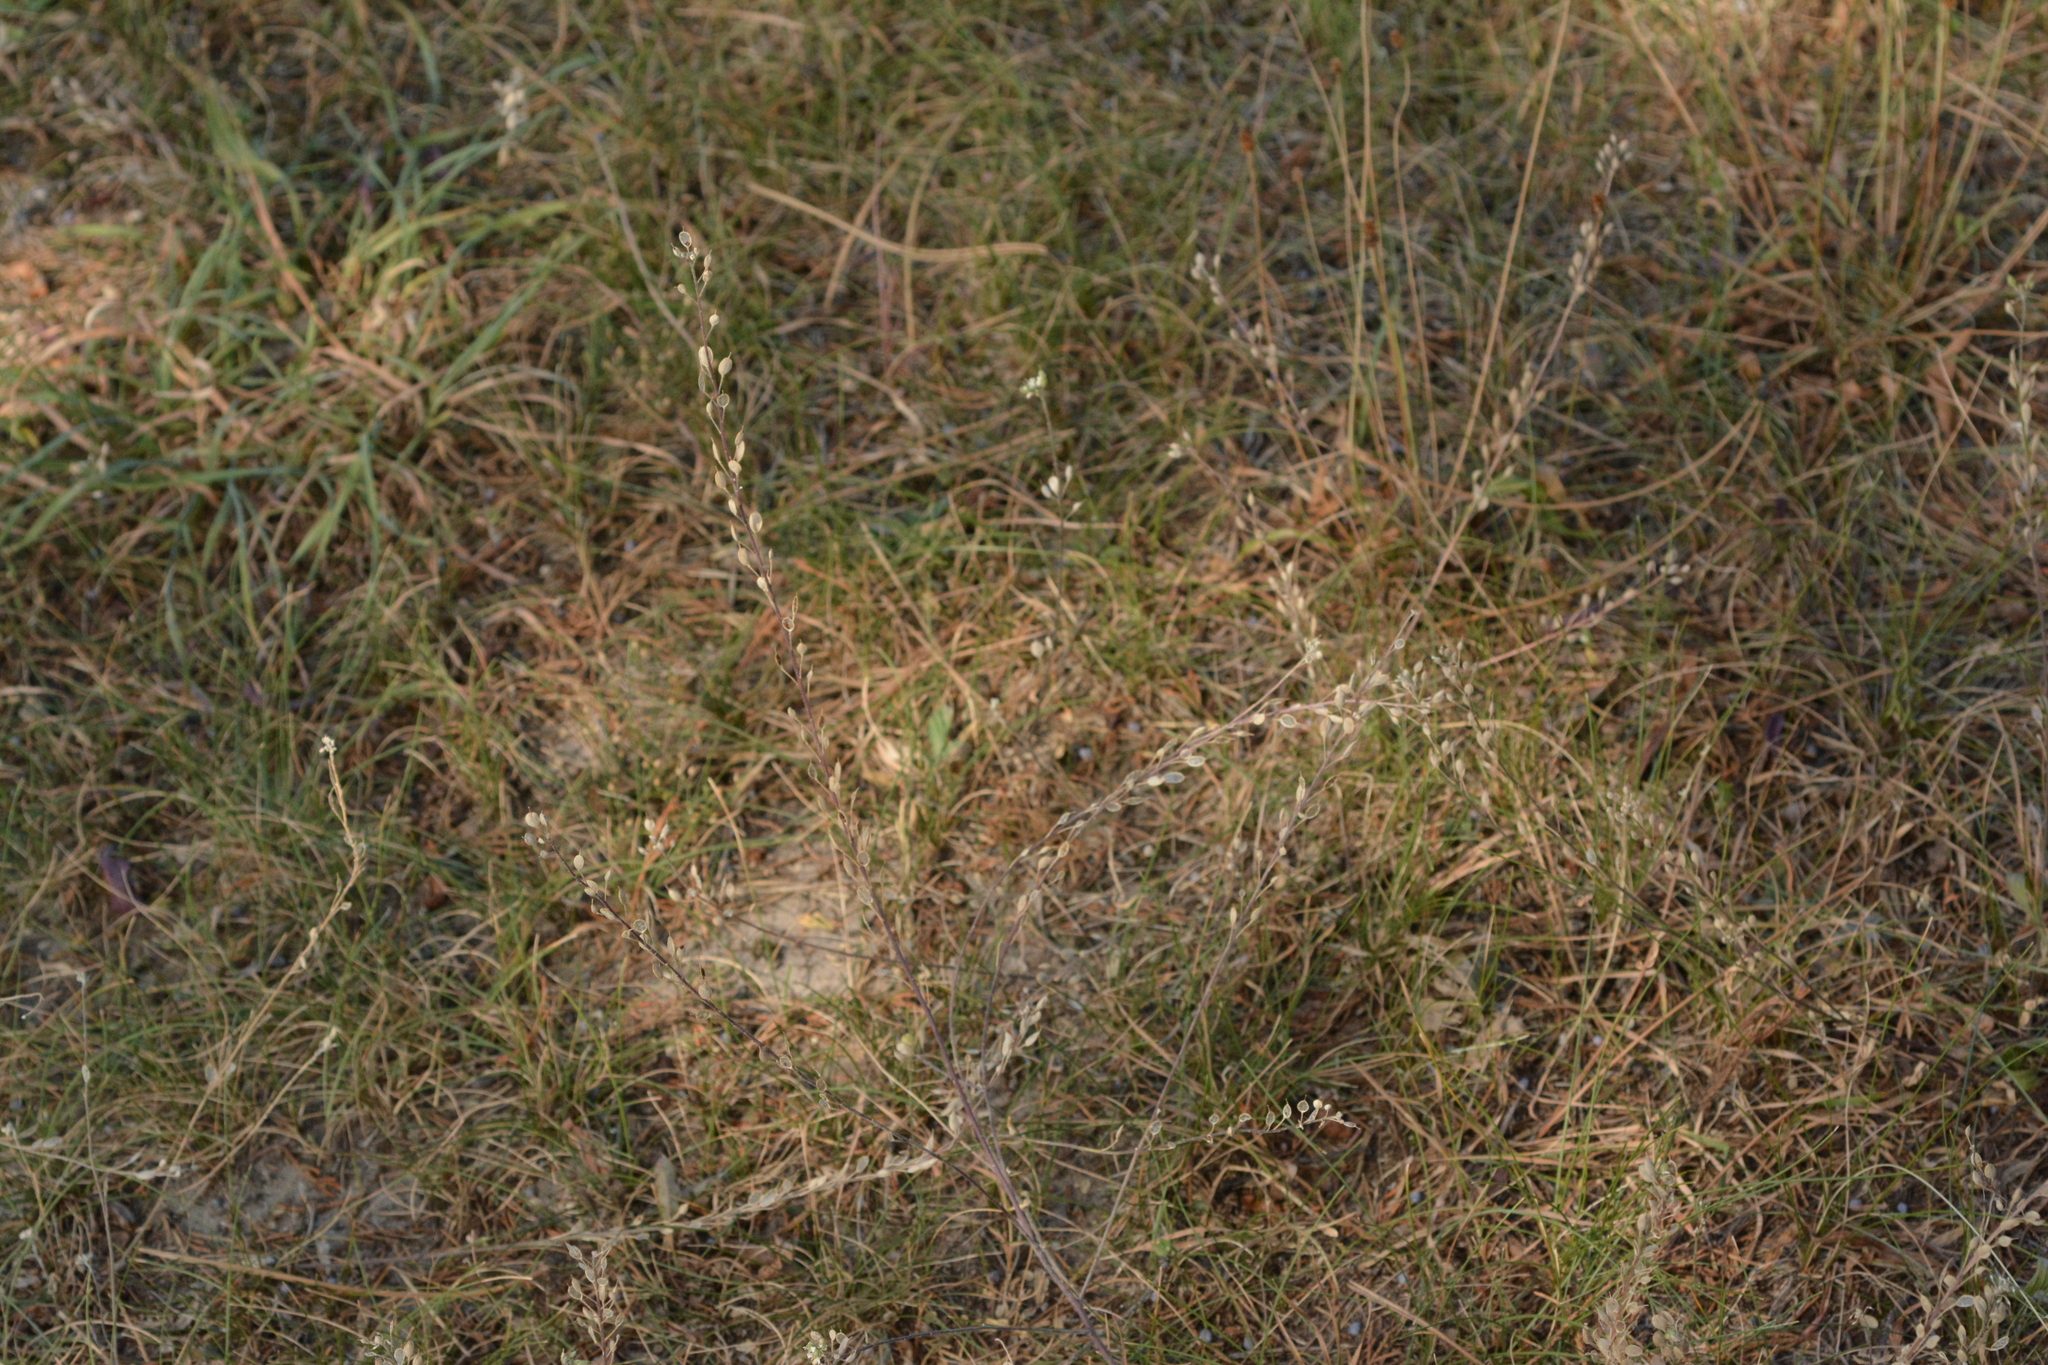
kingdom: Plantae
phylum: Tracheophyta
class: Magnoliopsida
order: Brassicales
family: Brassicaceae
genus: Berteroa
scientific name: Berteroa incana
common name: Hoary alison
